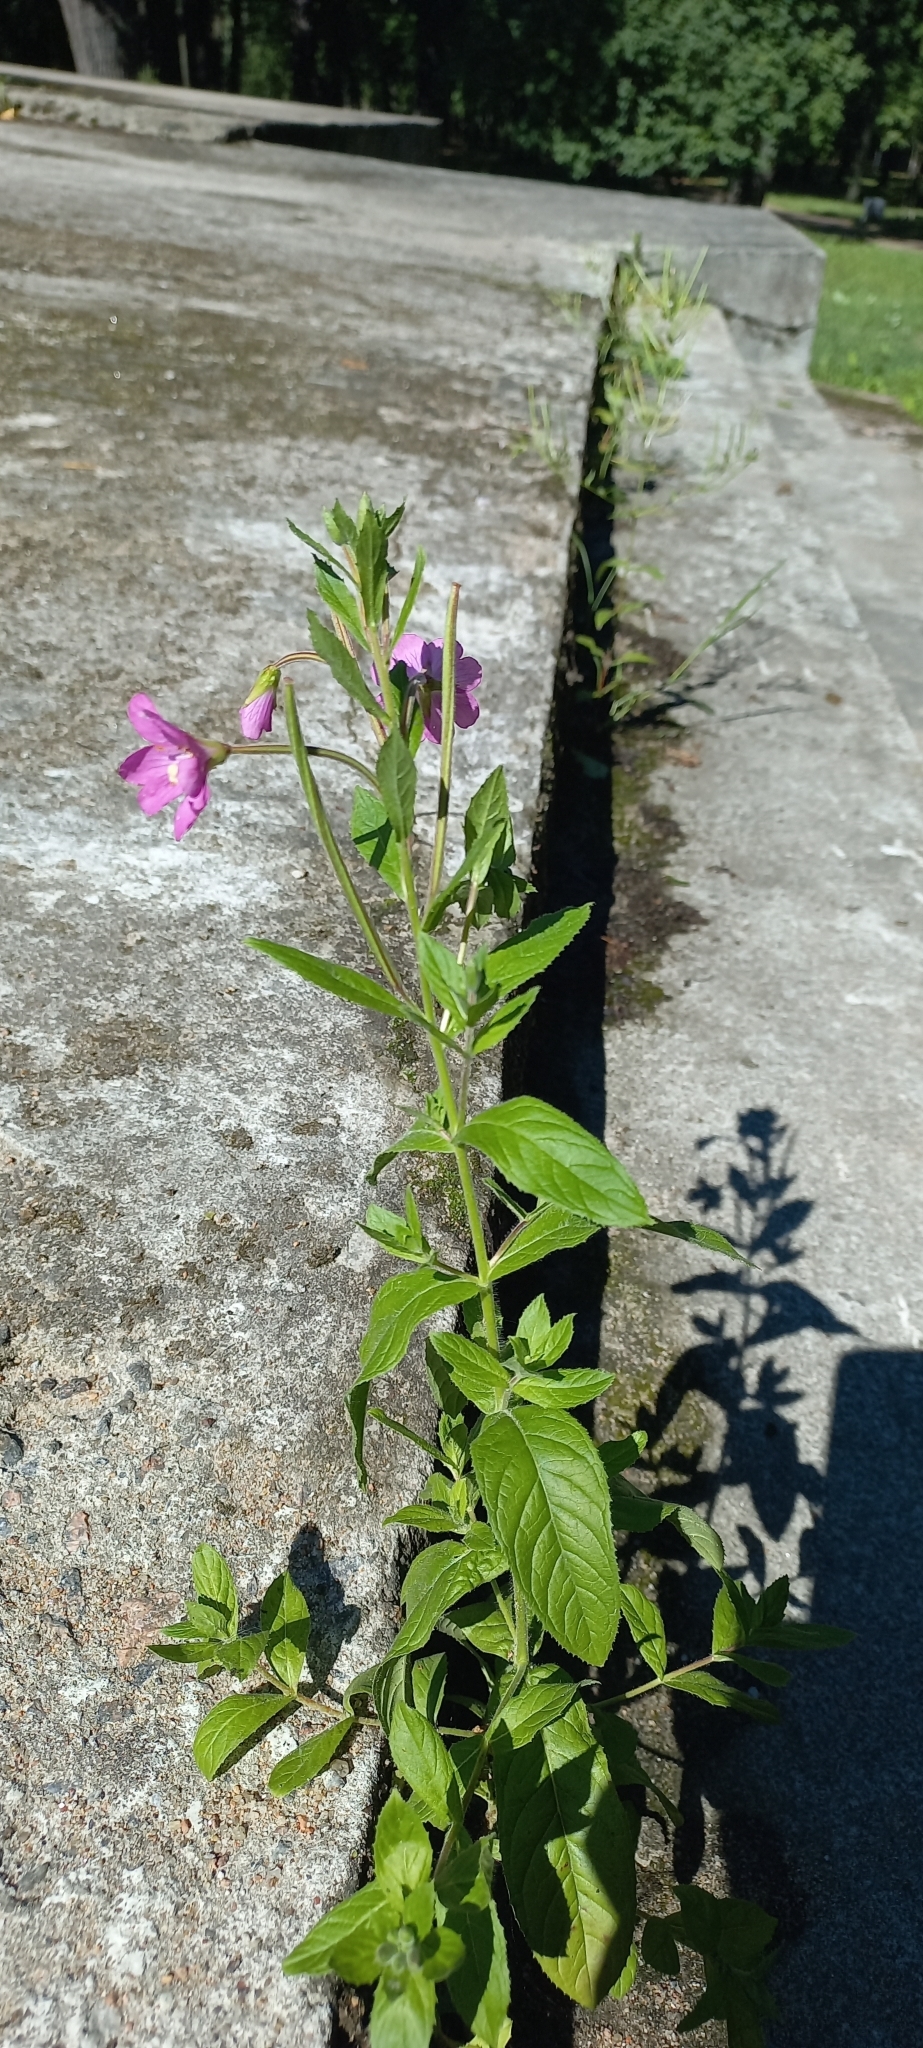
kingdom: Plantae
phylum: Tracheophyta
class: Magnoliopsida
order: Myrtales
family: Onagraceae
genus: Epilobium
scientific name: Epilobium hirsutum
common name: Great willowherb
